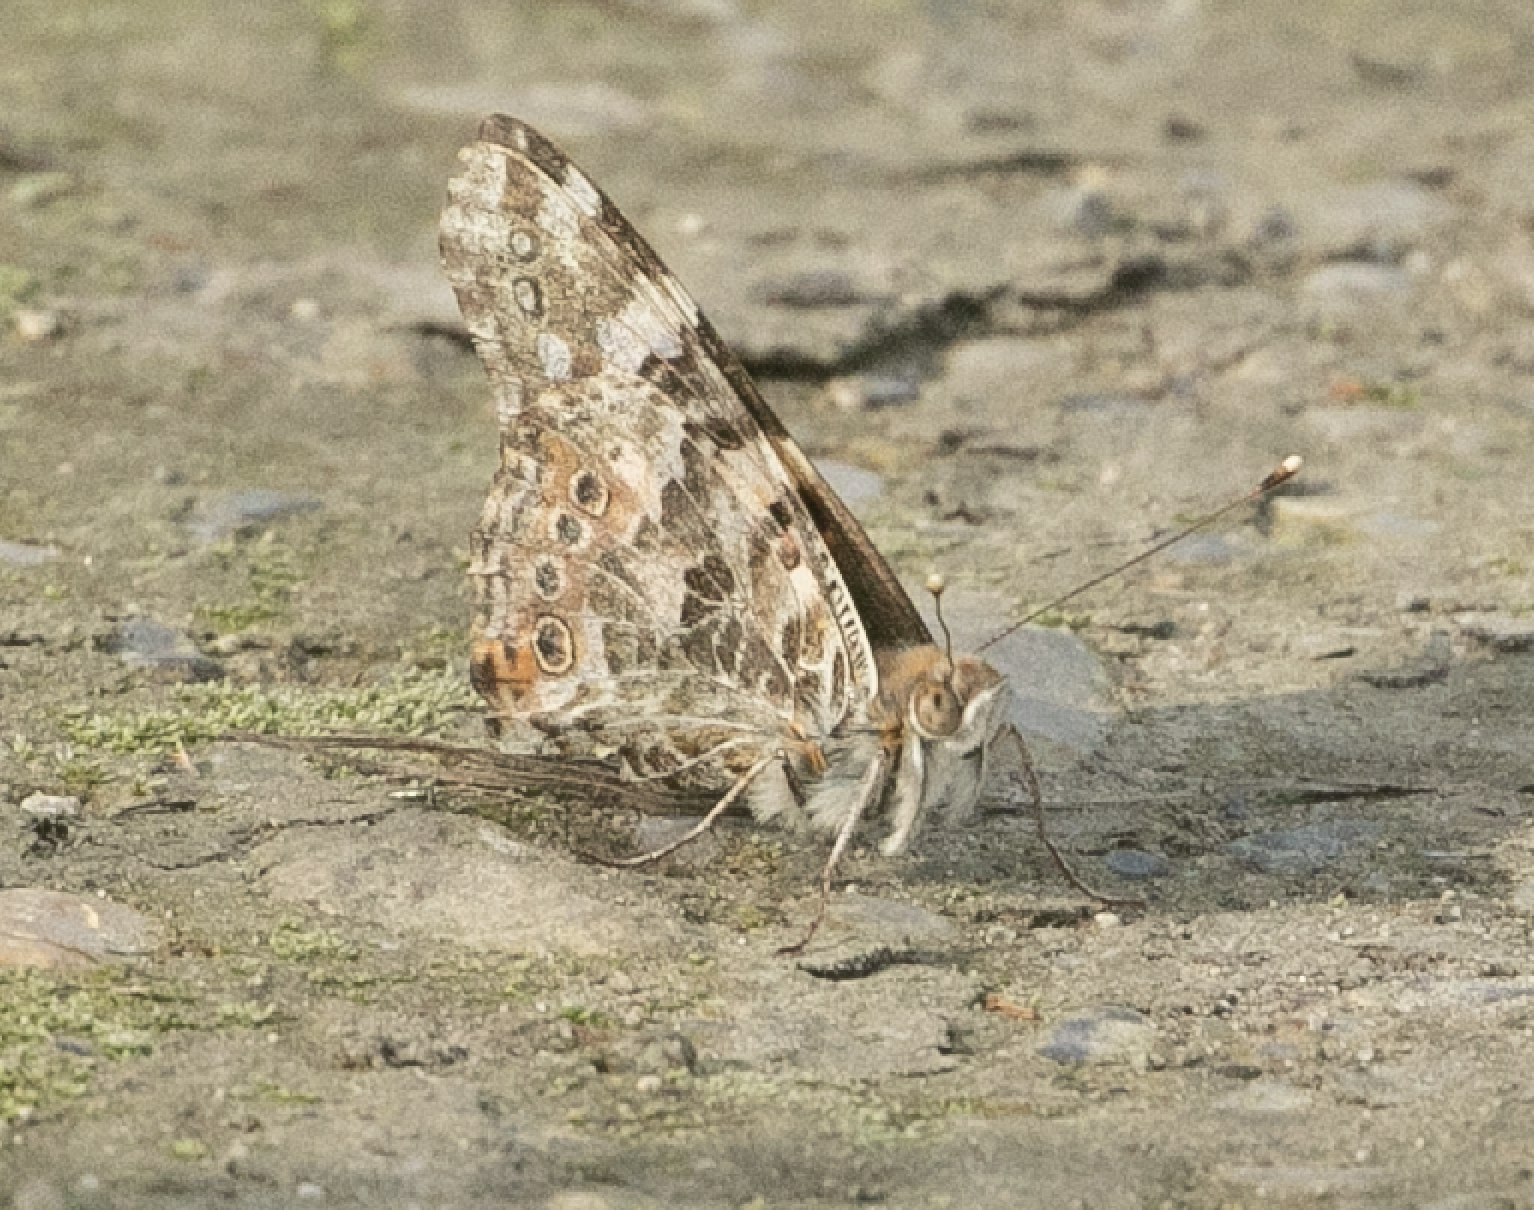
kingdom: Animalia
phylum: Arthropoda
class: Insecta
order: Lepidoptera
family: Nymphalidae
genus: Vanessa
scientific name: Vanessa cardui
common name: Painted lady
